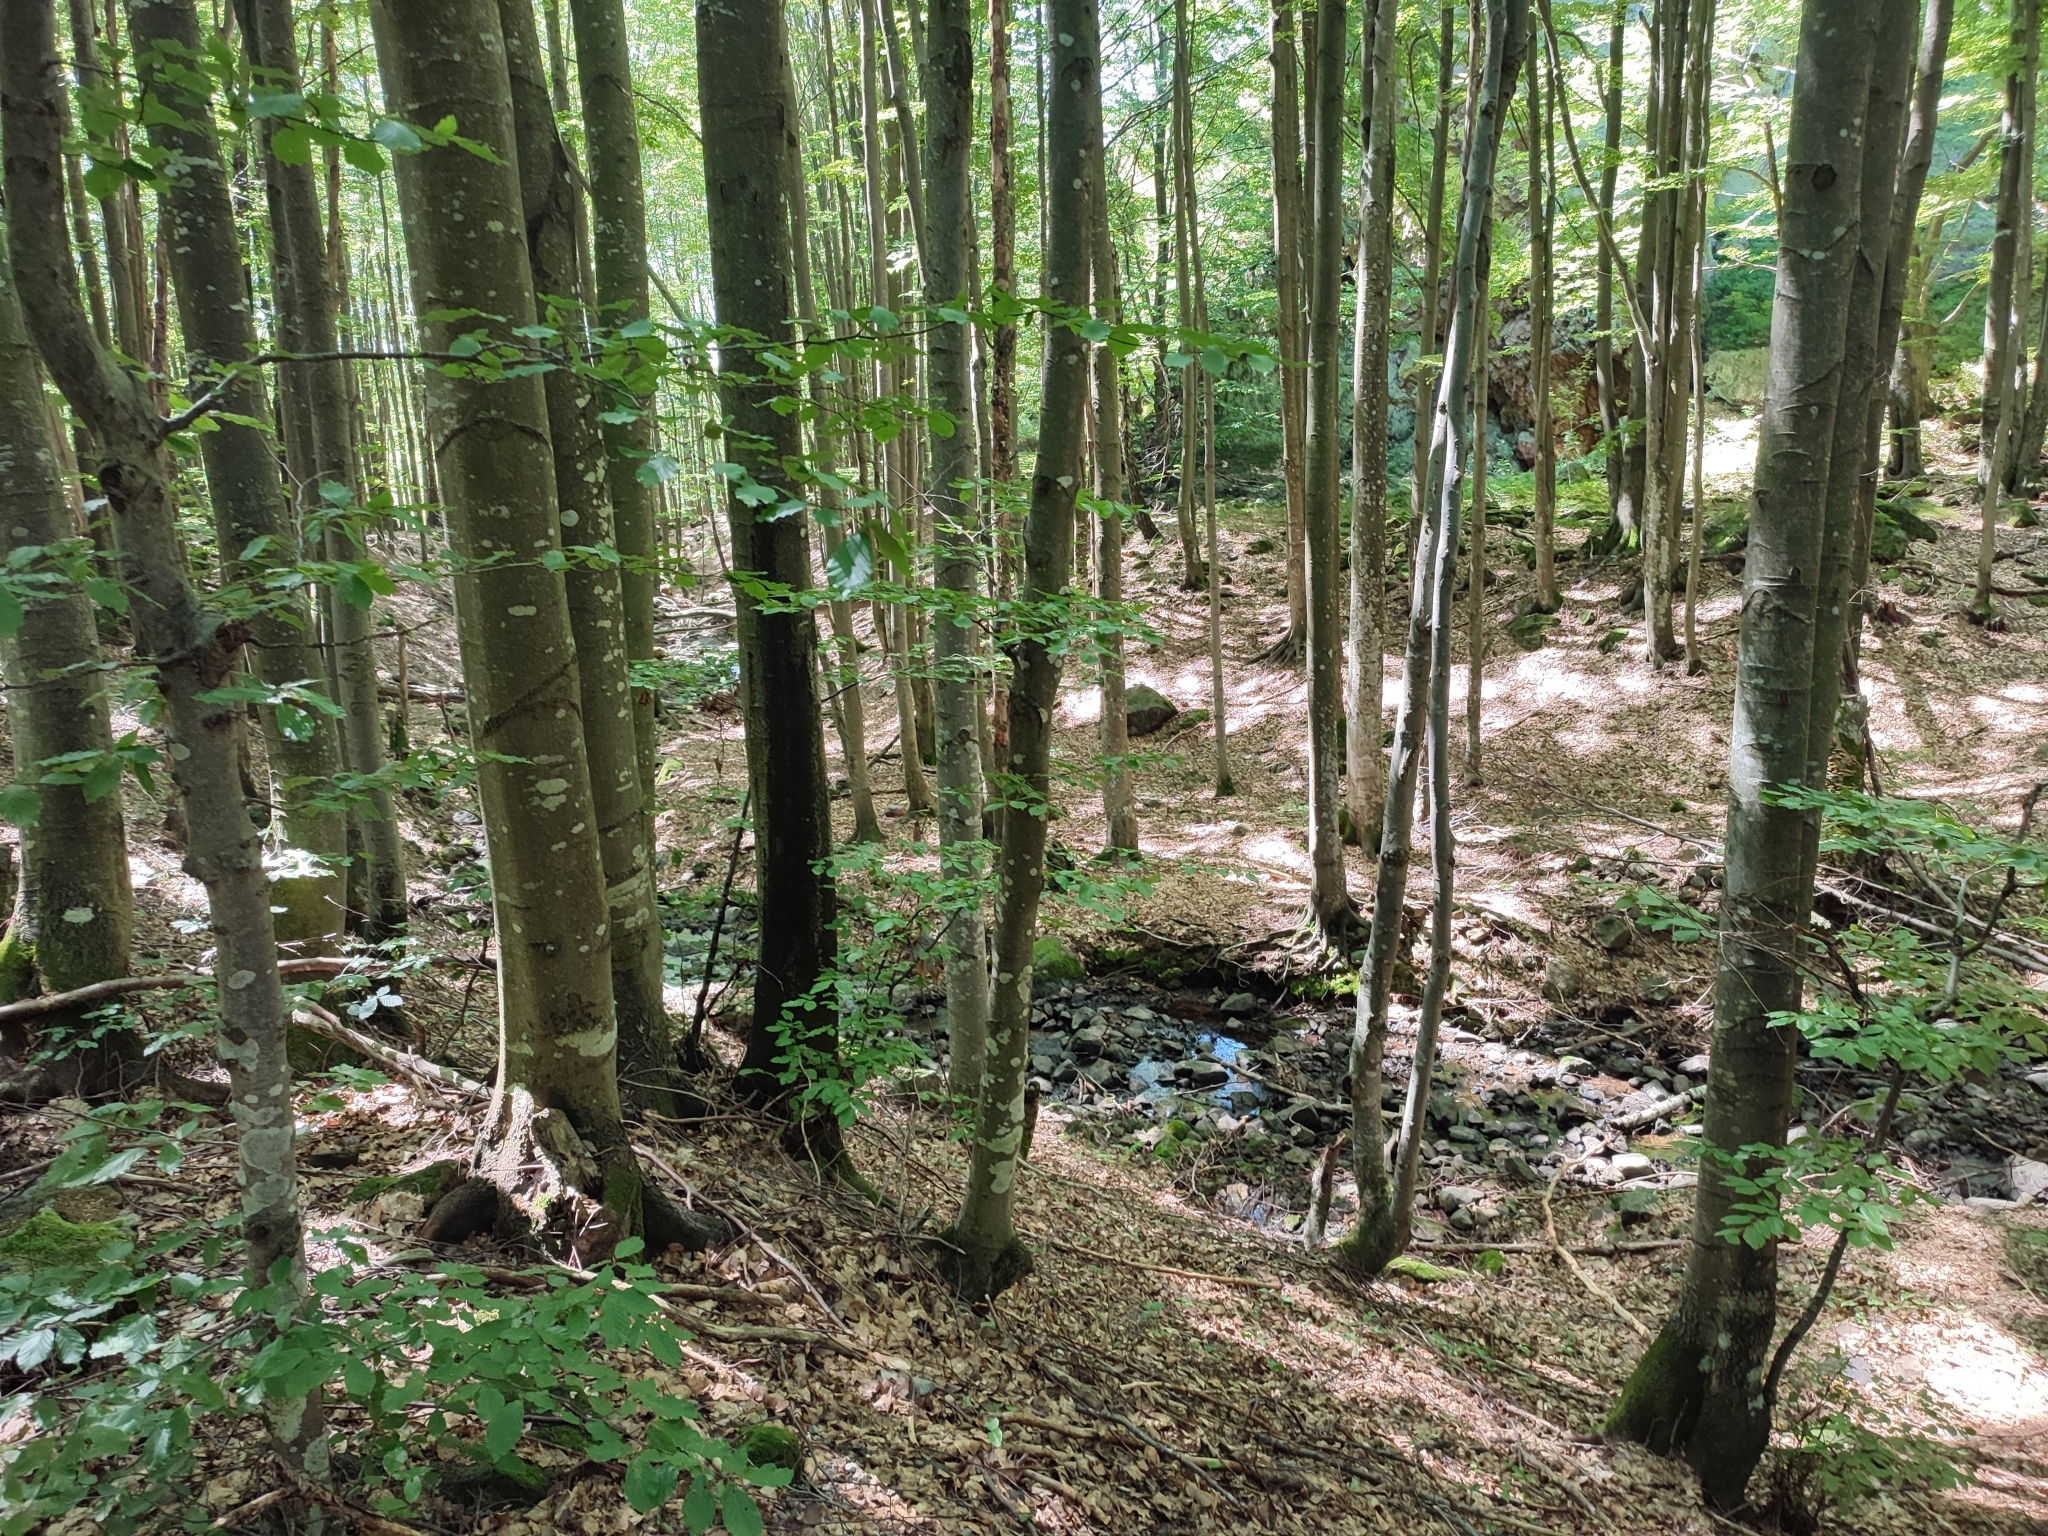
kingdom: Plantae
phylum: Tracheophyta
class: Magnoliopsida
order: Fagales
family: Fagaceae
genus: Fagus
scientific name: Fagus sylvatica
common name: Beech
